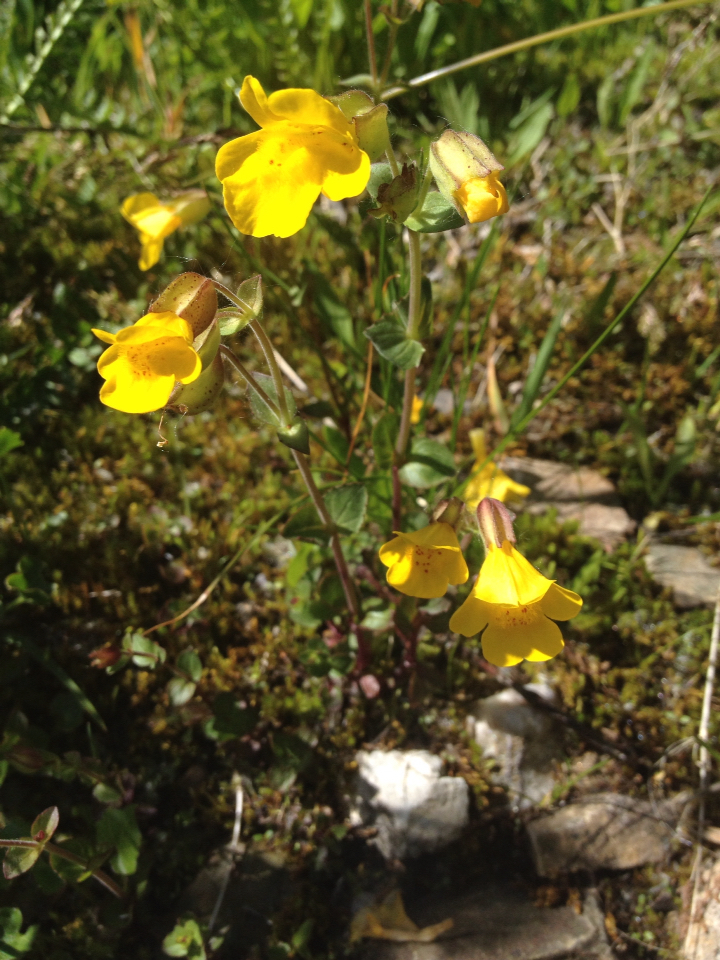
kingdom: Plantae
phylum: Tracheophyta
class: Magnoliopsida
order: Lamiales
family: Phrymaceae
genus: Erythranthe
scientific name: Erythranthe guttata
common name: Monkeyflower
